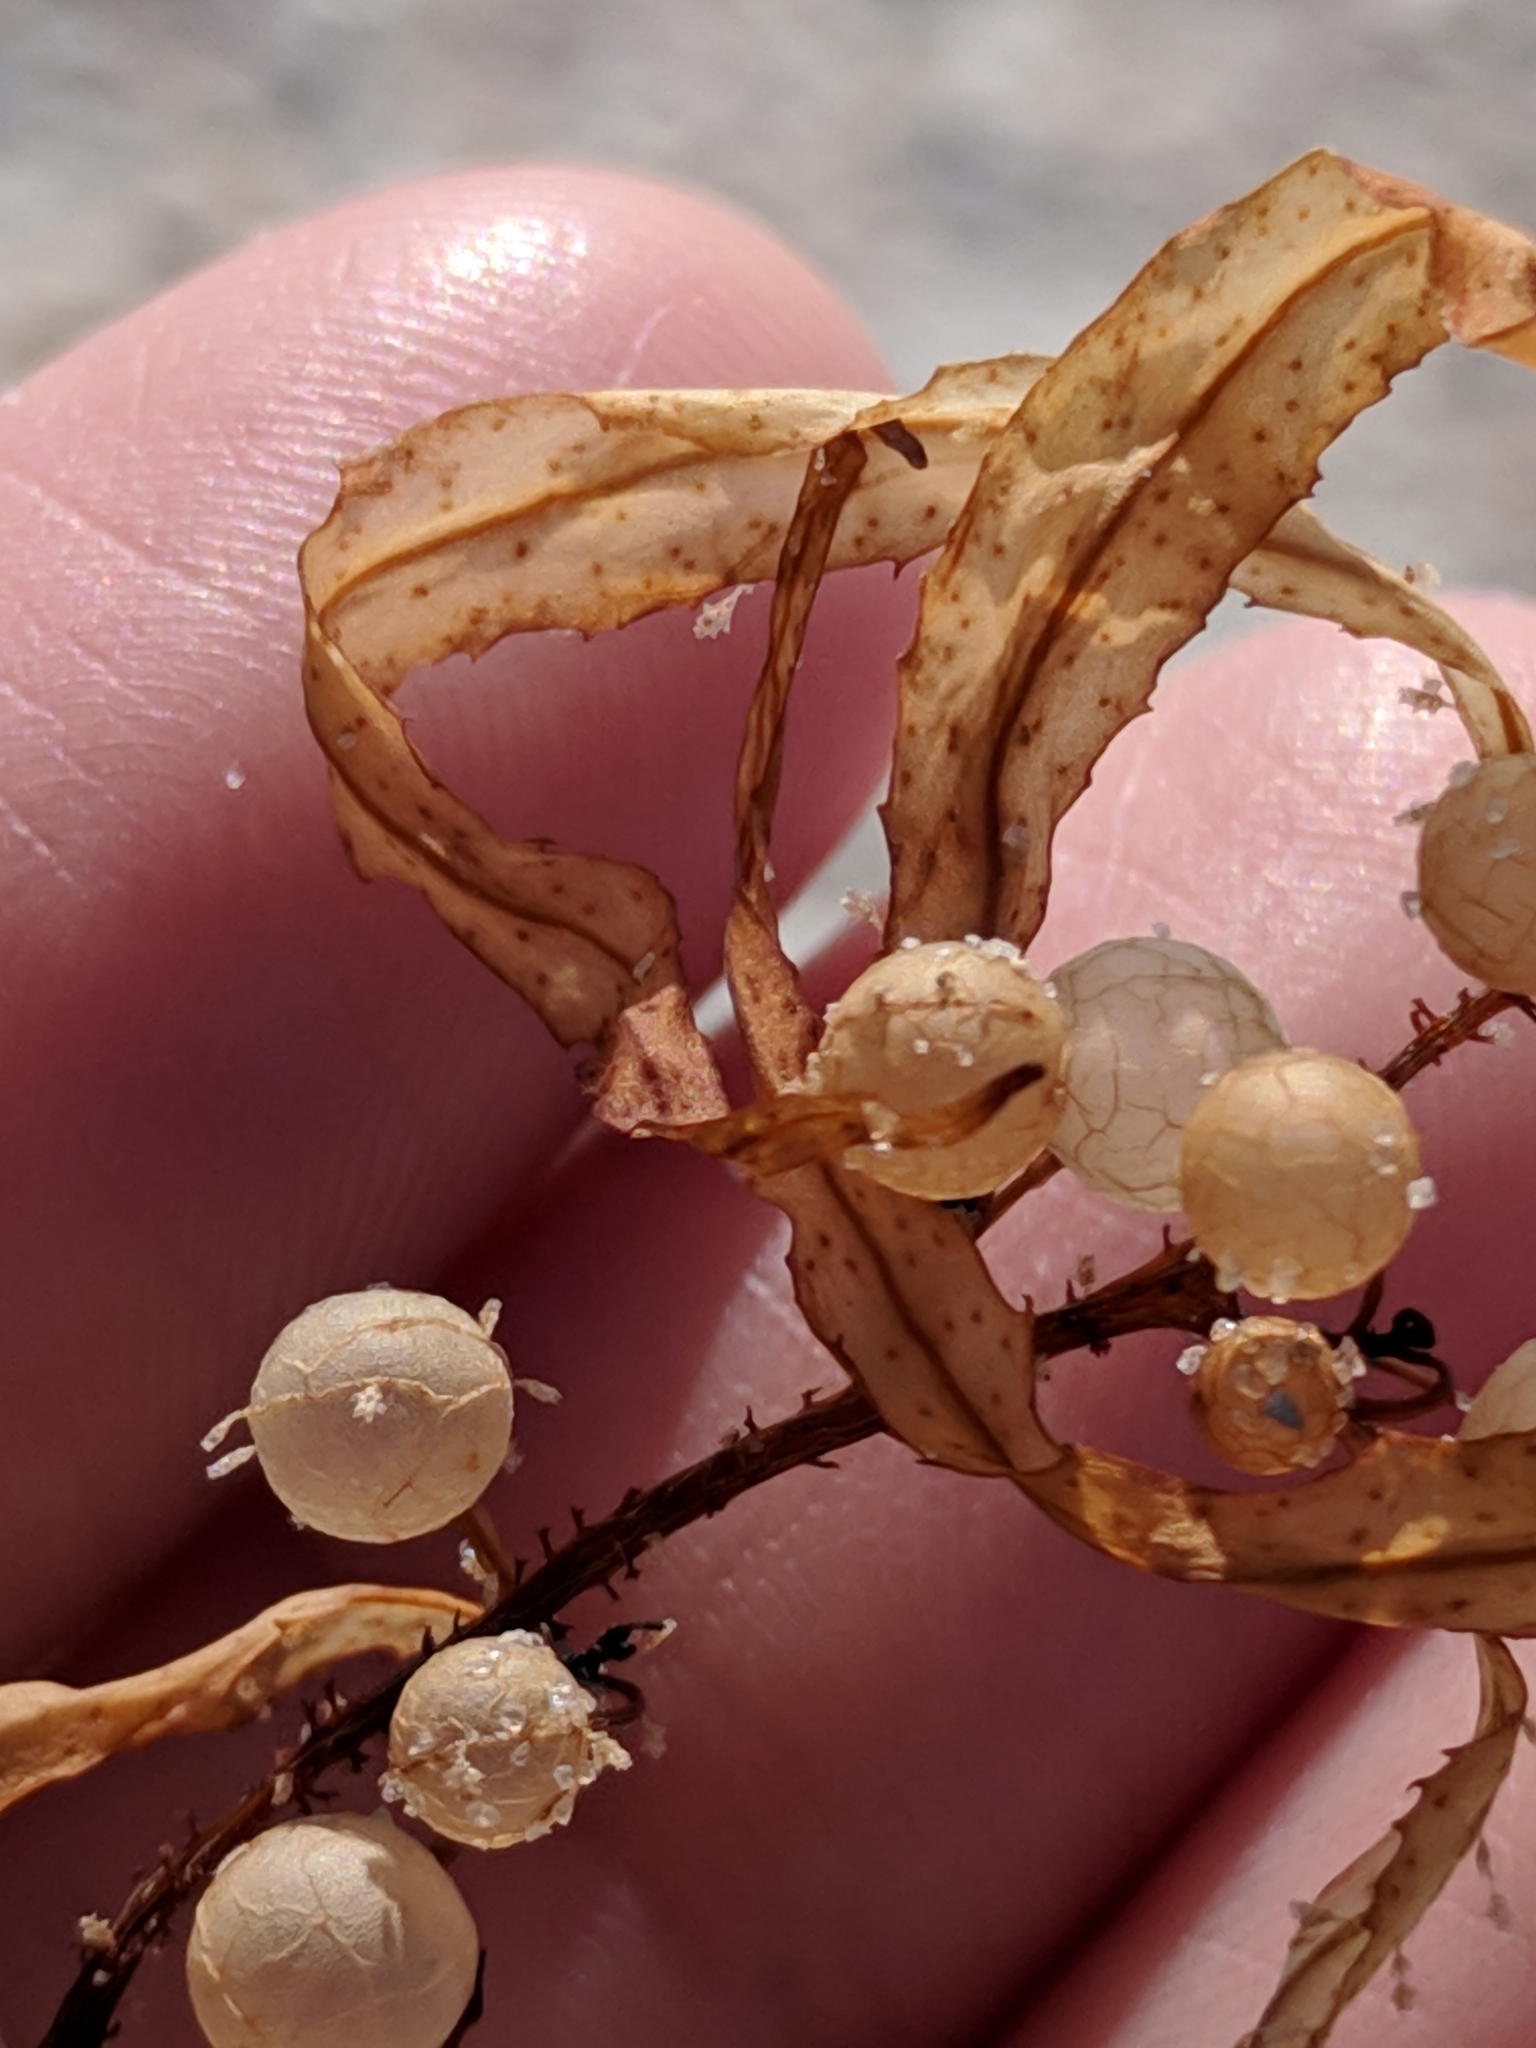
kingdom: Chromista
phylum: Ochrophyta
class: Phaeophyceae
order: Fucales
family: Sargassaceae
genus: Sargassum
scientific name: Sargassum fluitans
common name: Sargassum seaweed
